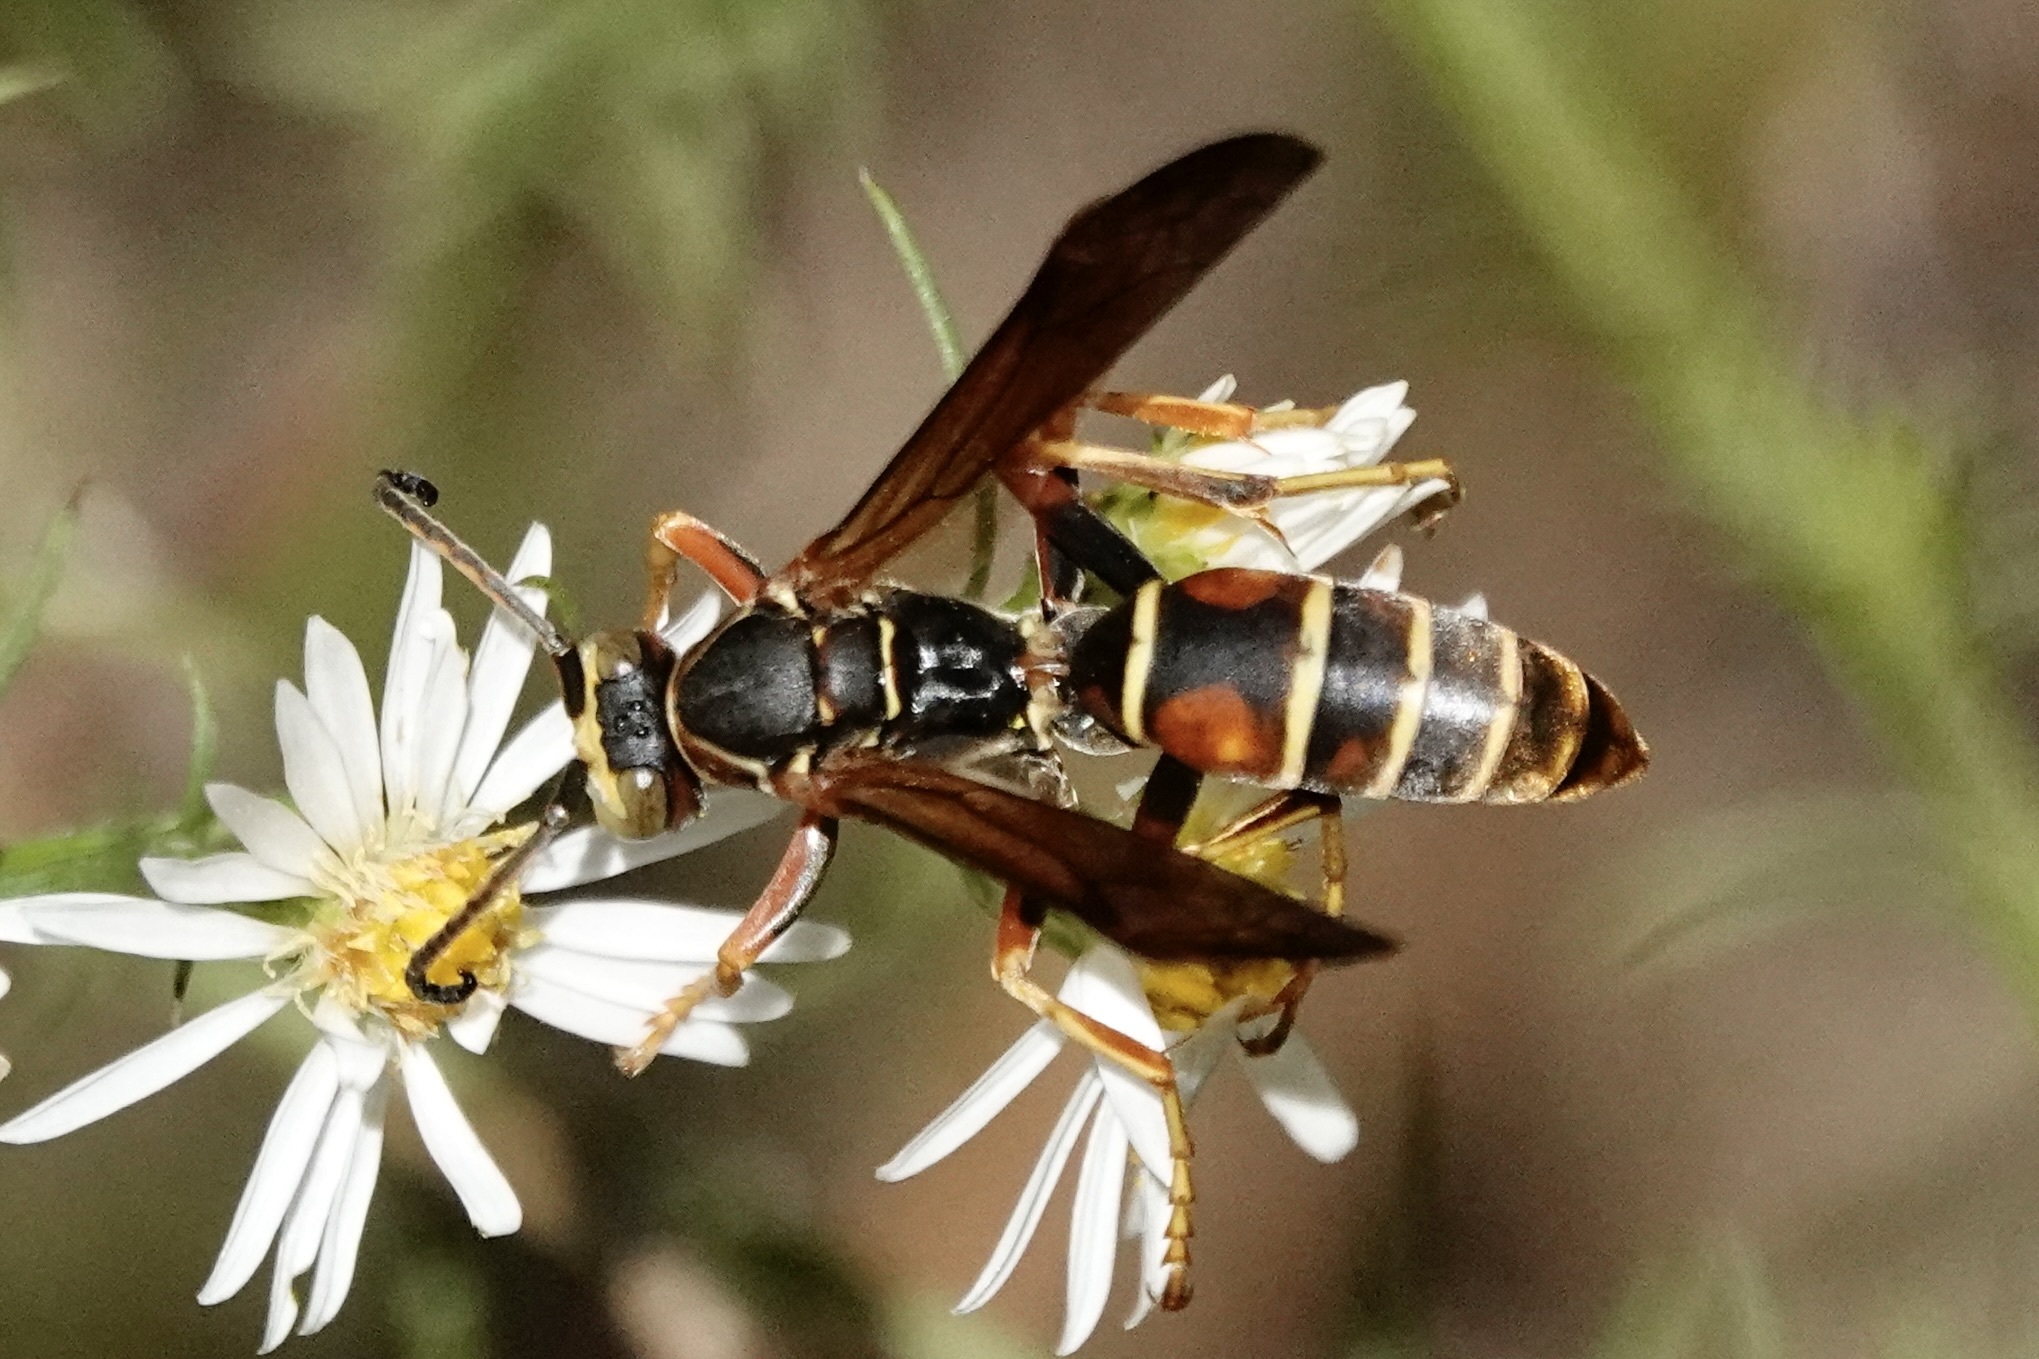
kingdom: Animalia
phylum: Arthropoda
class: Insecta
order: Hymenoptera
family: Eumenidae
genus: Polistes
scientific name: Polistes fuscatus
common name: Dark paper wasp
